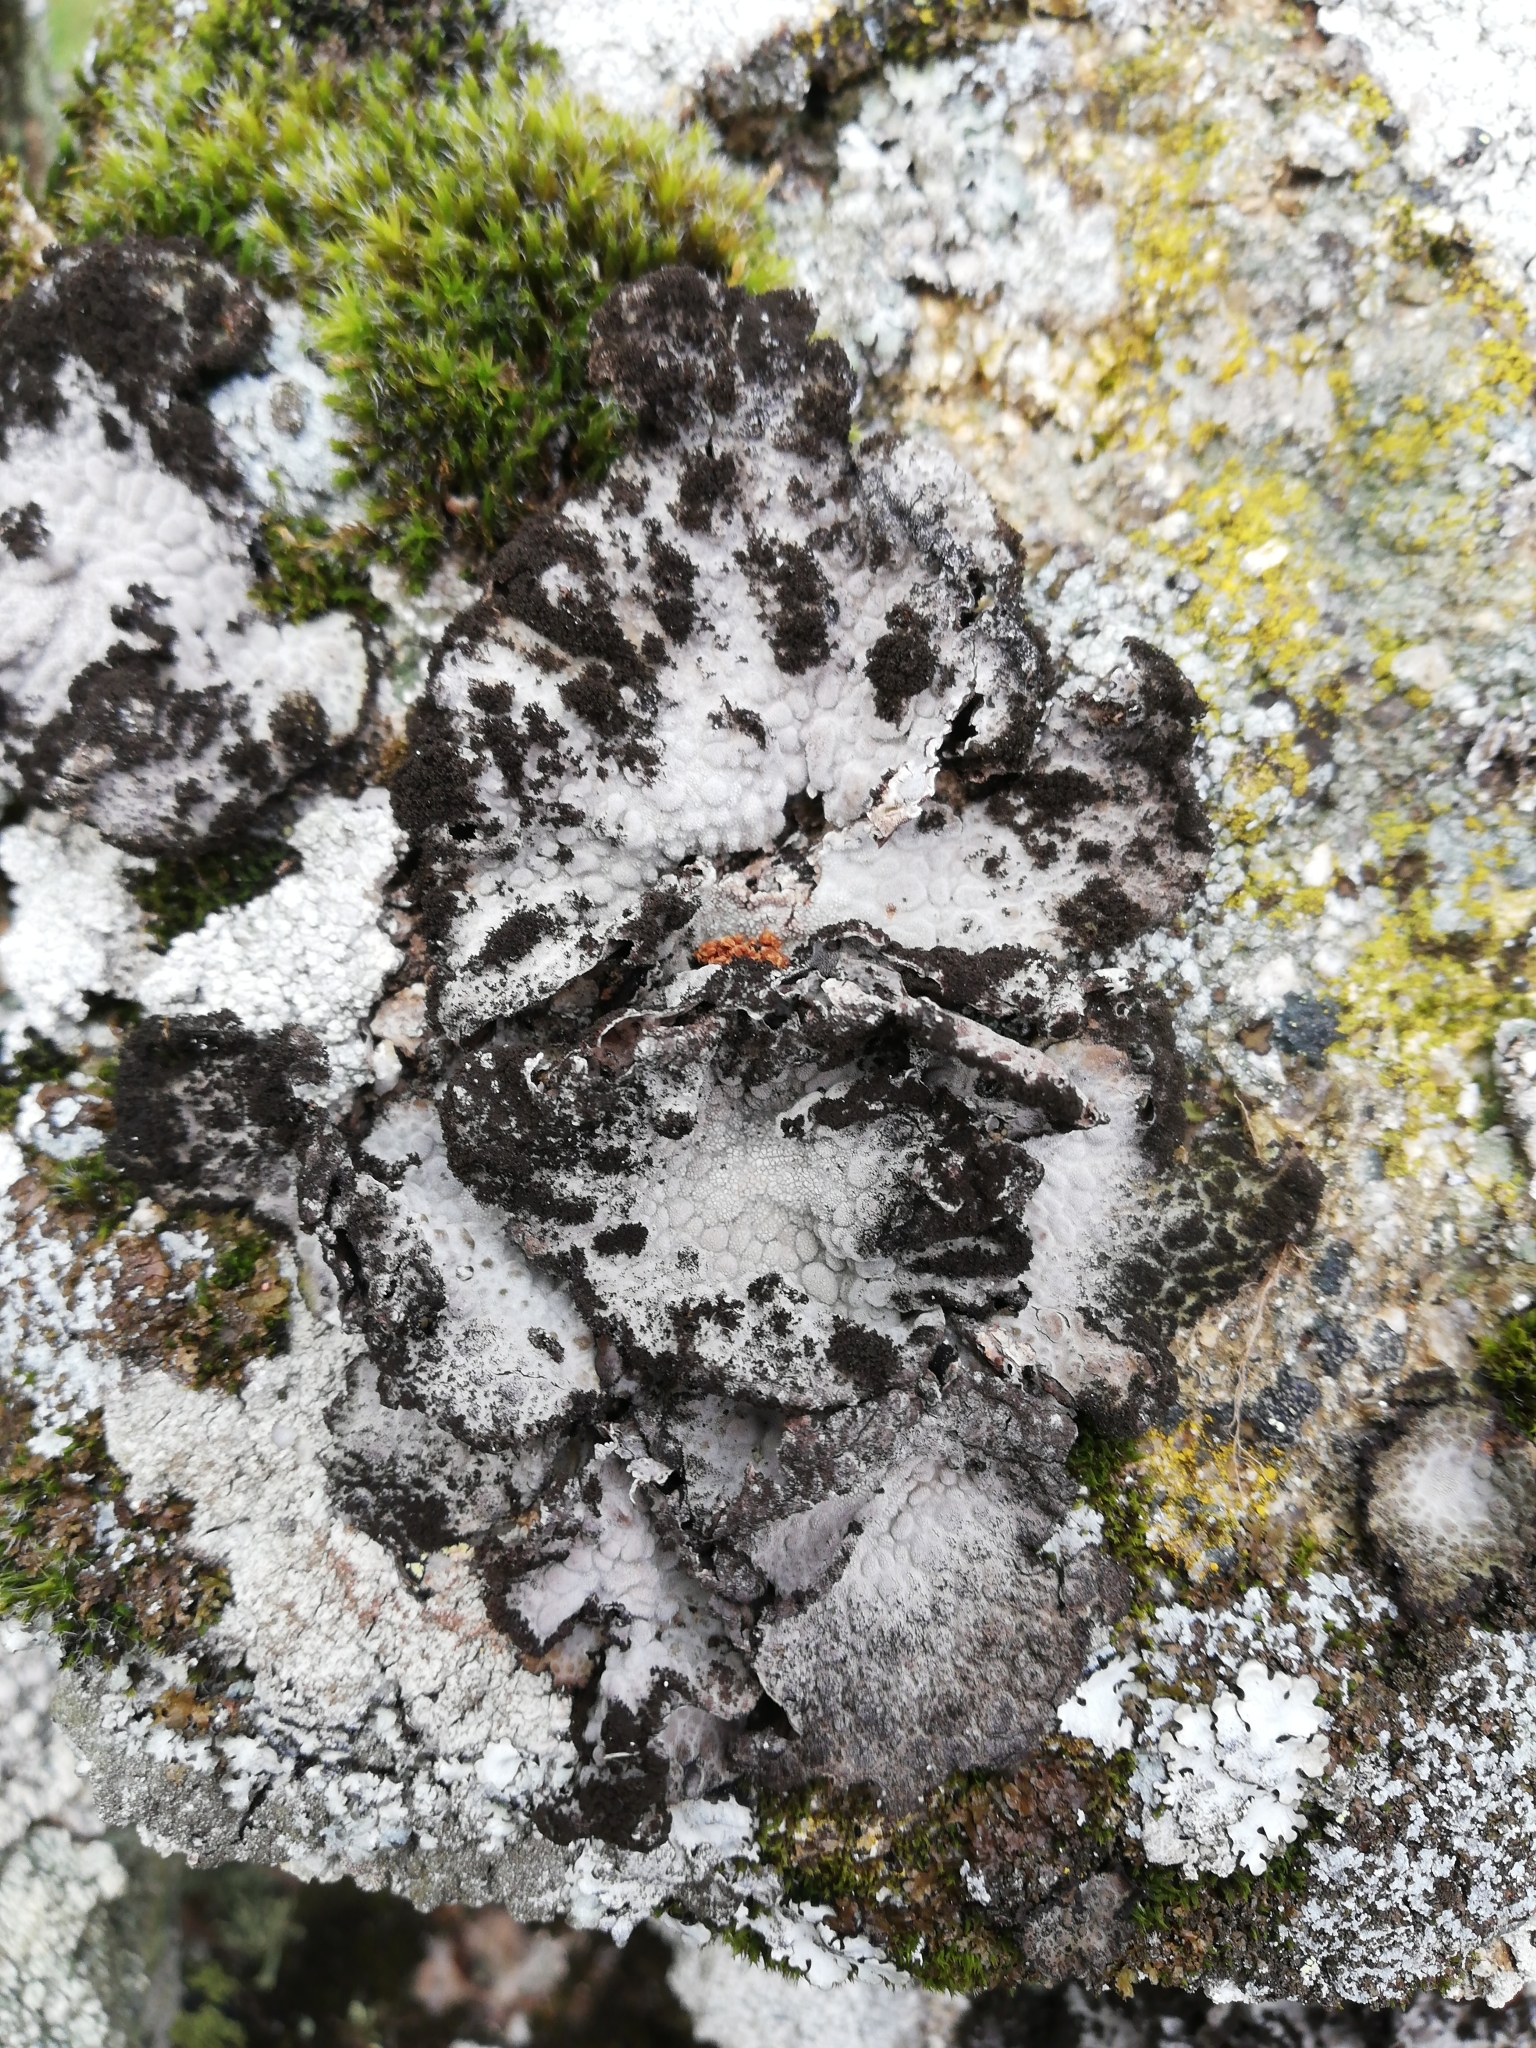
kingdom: Fungi
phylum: Ascomycota
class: Lecanoromycetes
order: Umbilicariales
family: Umbilicariaceae
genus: Lasallia
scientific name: Lasallia pustulata
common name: Blistered toadskin lichen
